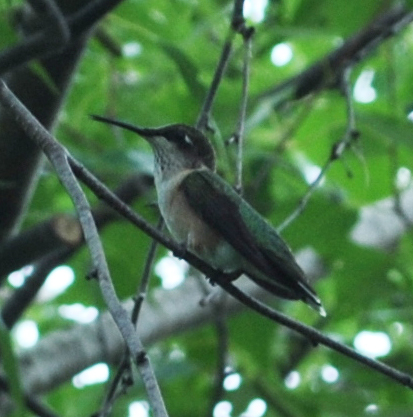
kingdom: Animalia
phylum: Chordata
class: Aves
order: Apodiformes
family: Trochilidae
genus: Archilochus
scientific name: Archilochus colubris
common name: Ruby-throated hummingbird
